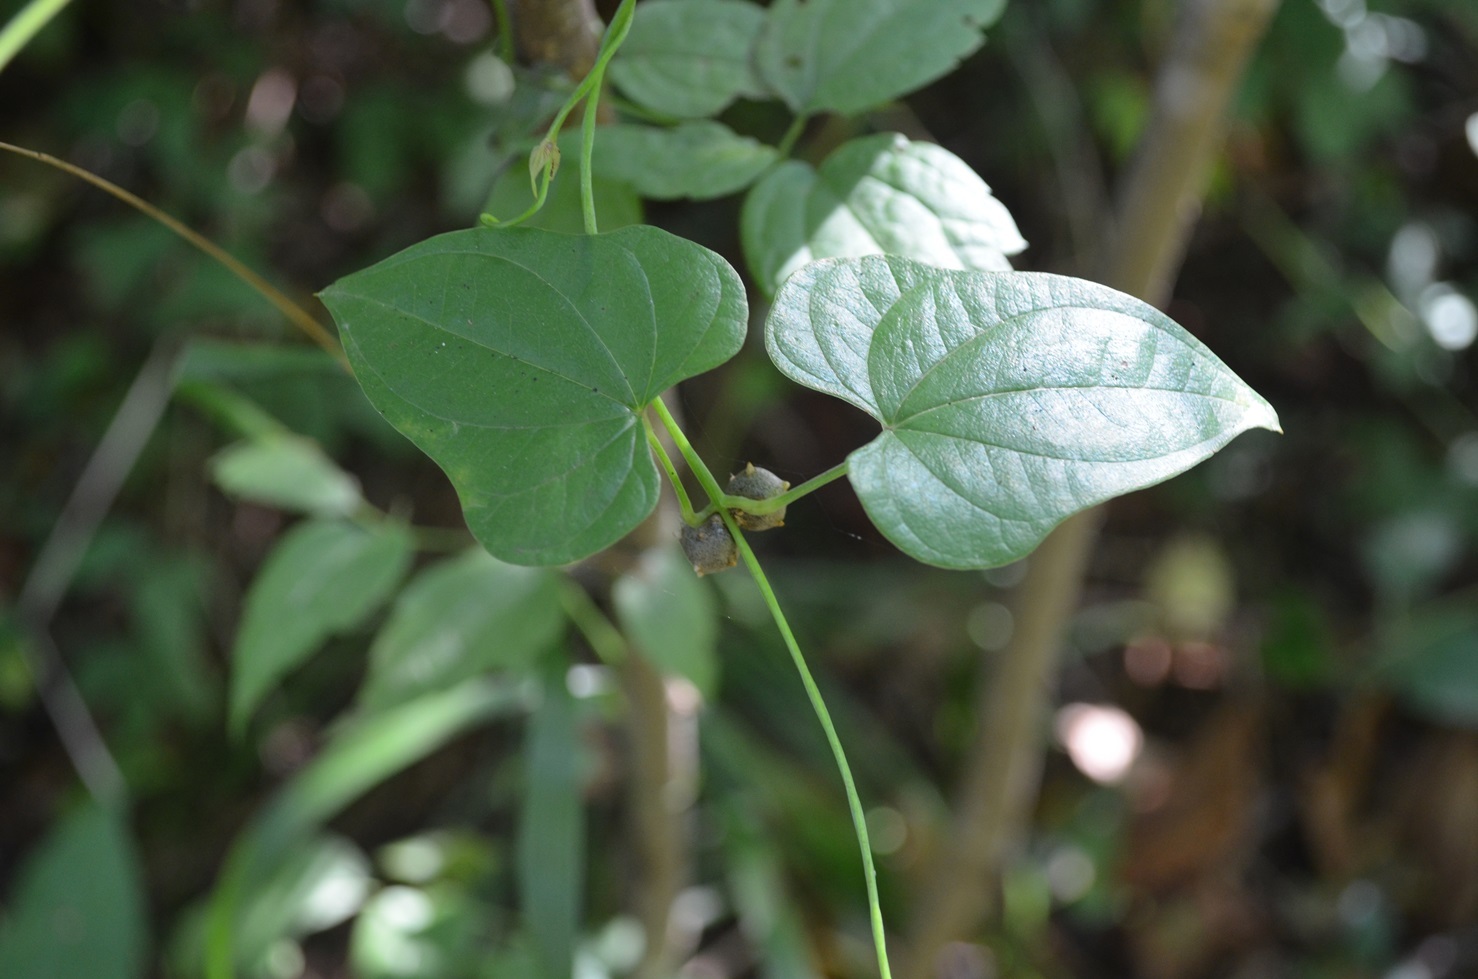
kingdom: Plantae
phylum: Tracheophyta
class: Liliopsida
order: Dioscoreales
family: Dioscoreaceae
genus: Dioscorea
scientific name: Dioscorea polystachya
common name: Chinese yam
